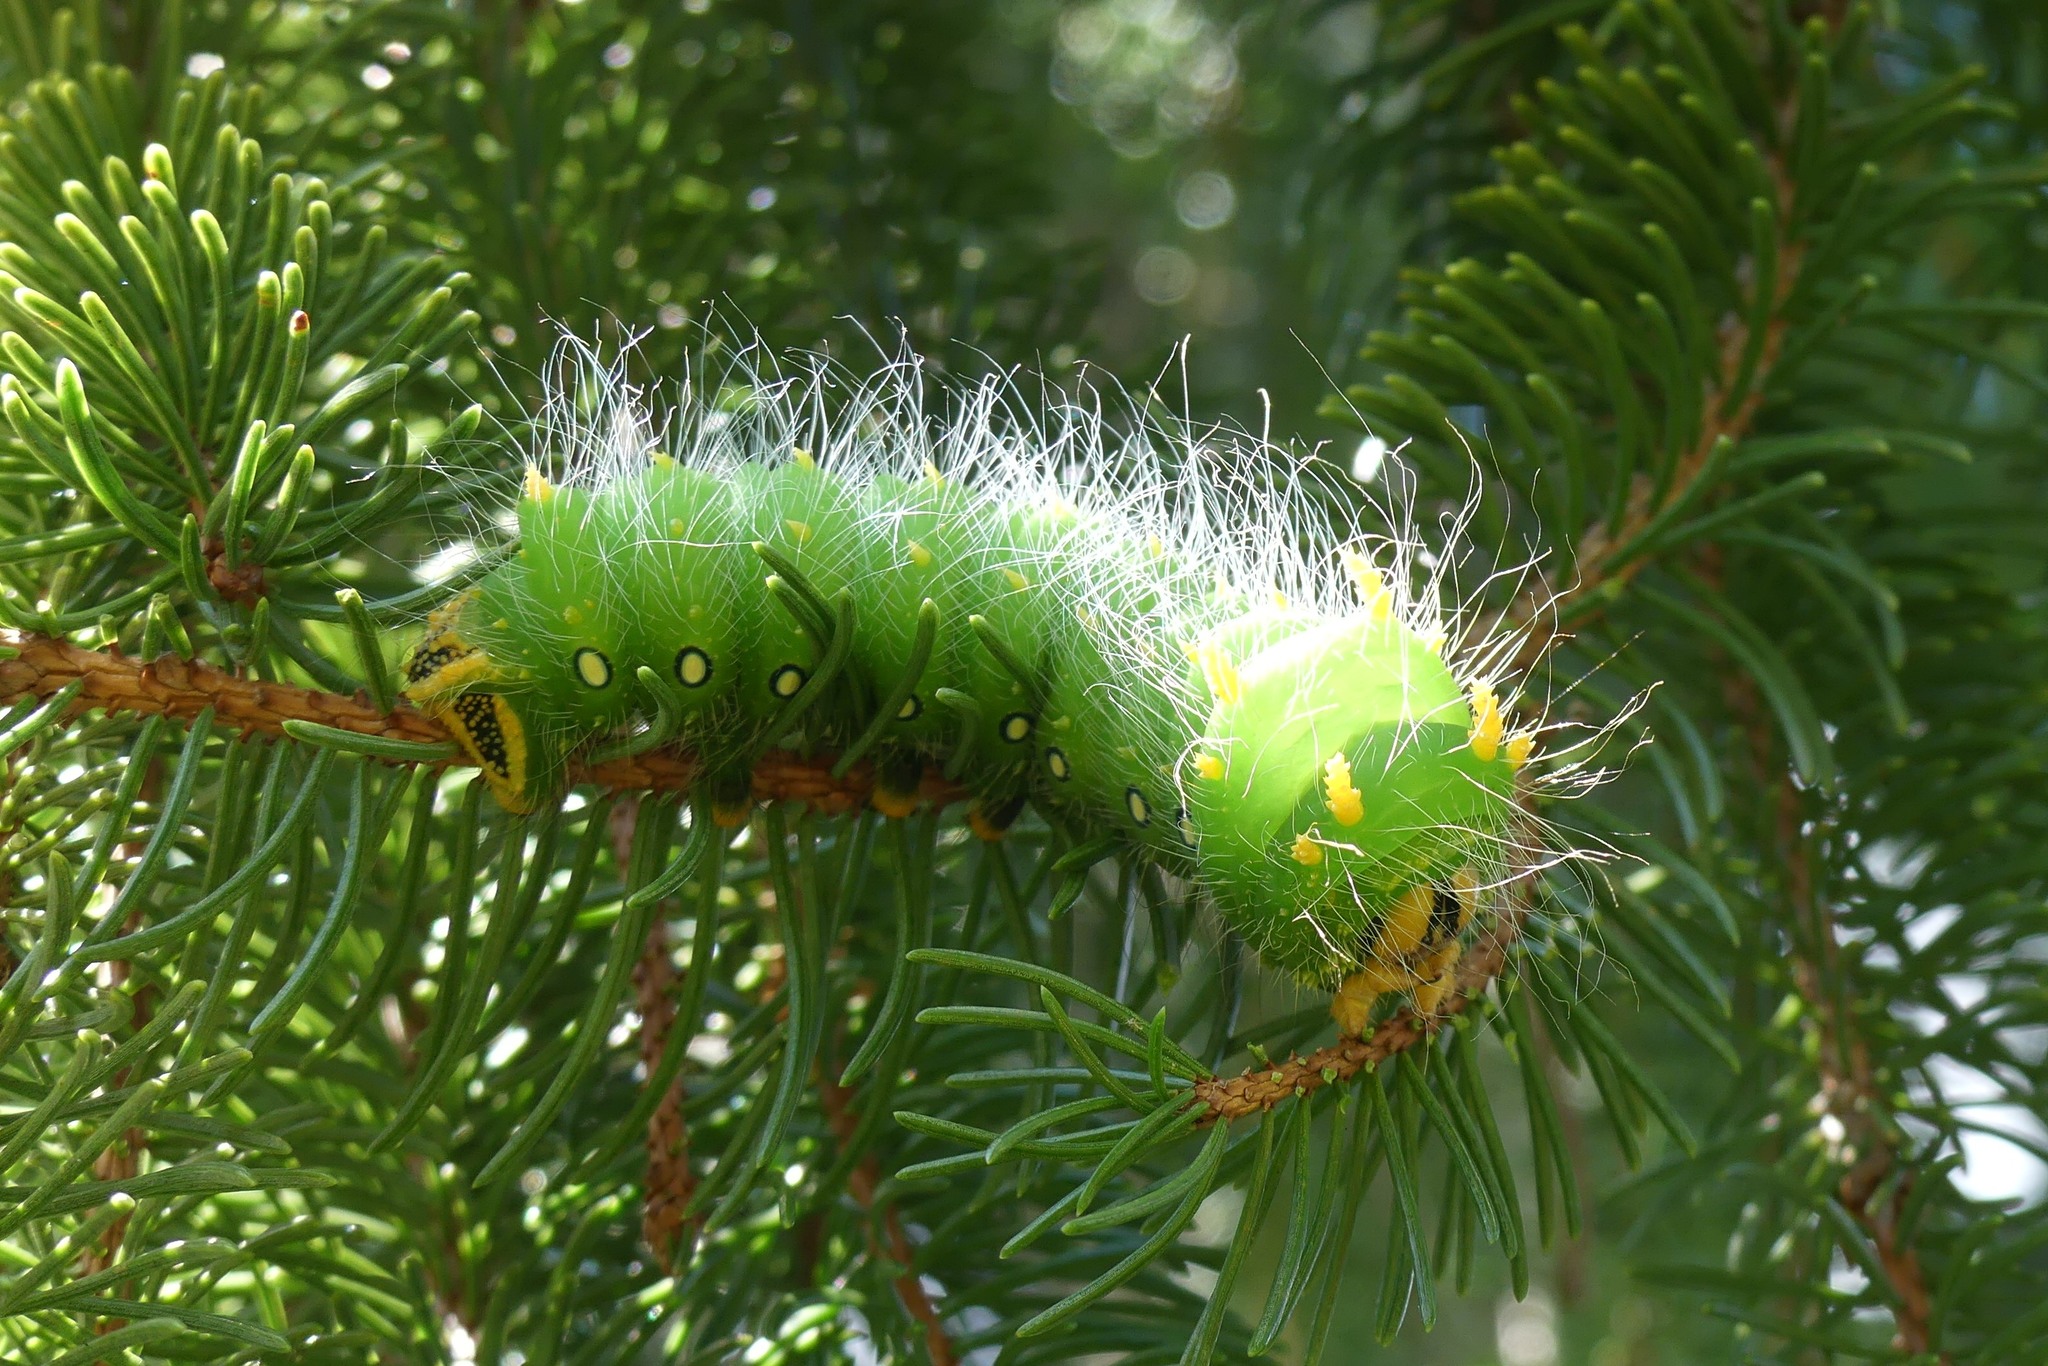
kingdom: Animalia
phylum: Arthropoda
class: Insecta
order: Lepidoptera
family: Saturniidae
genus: Eacles
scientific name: Eacles imperialis
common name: Imperial moth
